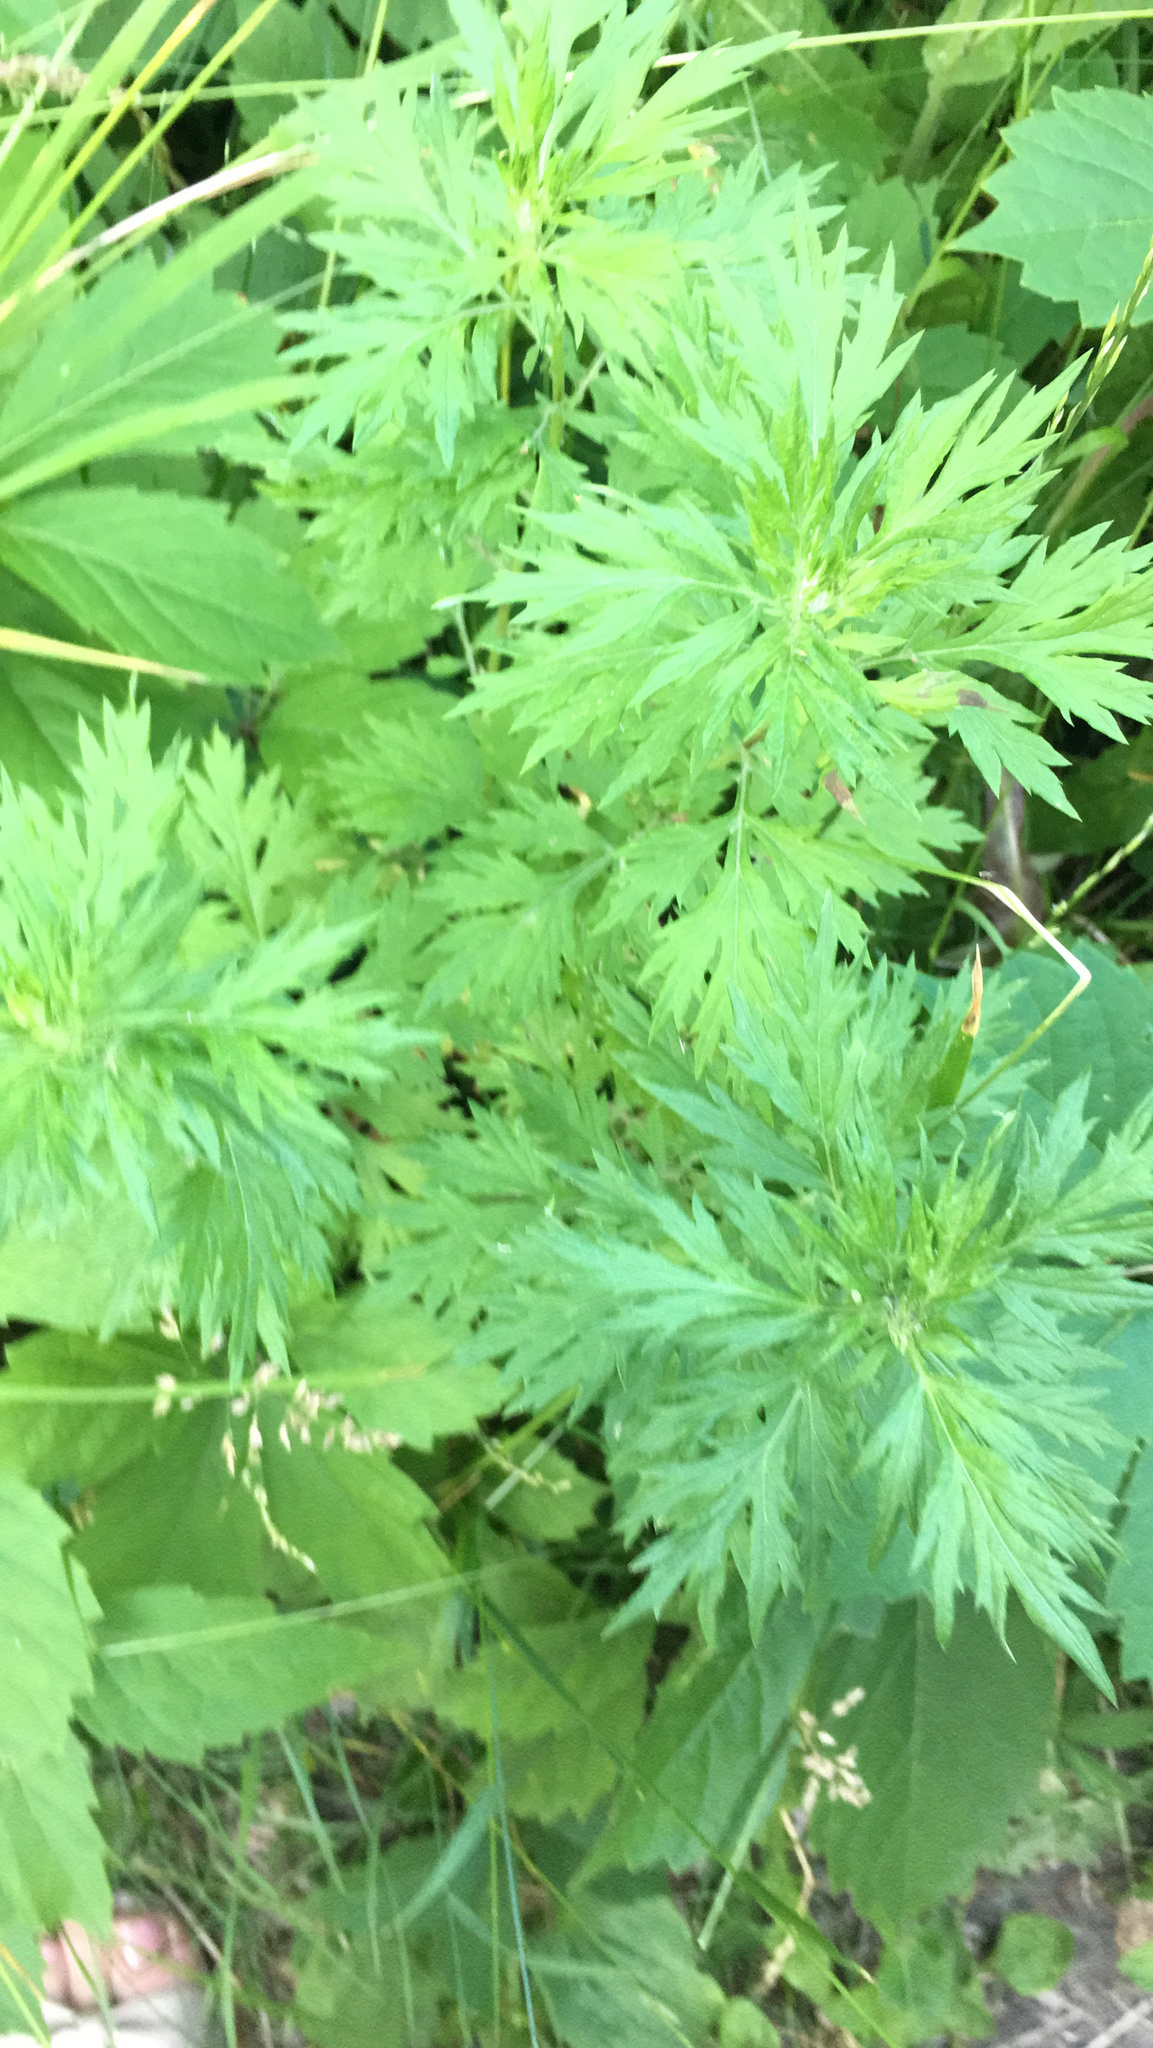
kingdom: Plantae
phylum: Tracheophyta
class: Magnoliopsida
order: Asterales
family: Asteraceae
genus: Artemisia
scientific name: Artemisia vulgaris
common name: Mugwort
